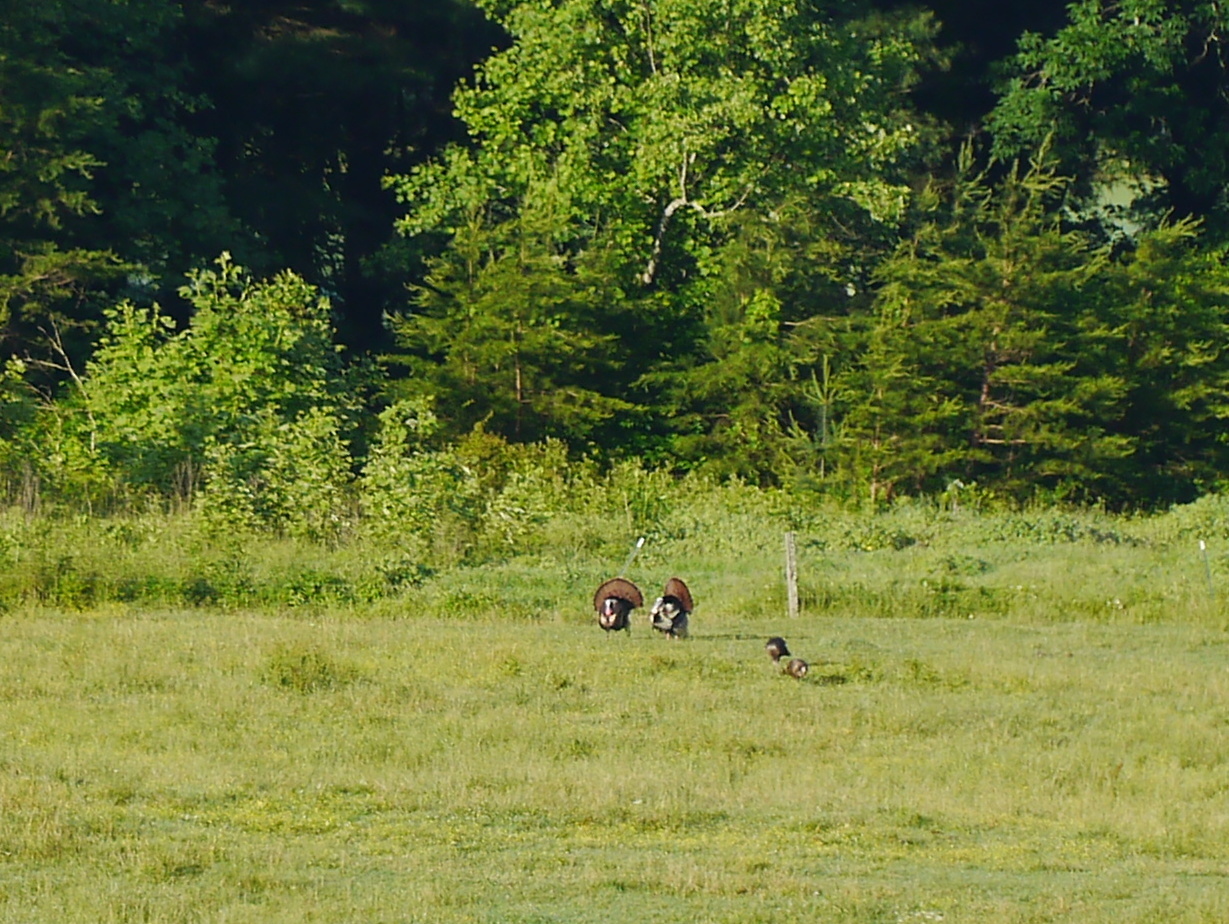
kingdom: Animalia
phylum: Chordata
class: Aves
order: Galliformes
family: Phasianidae
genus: Meleagris
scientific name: Meleagris gallopavo
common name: Wild turkey
